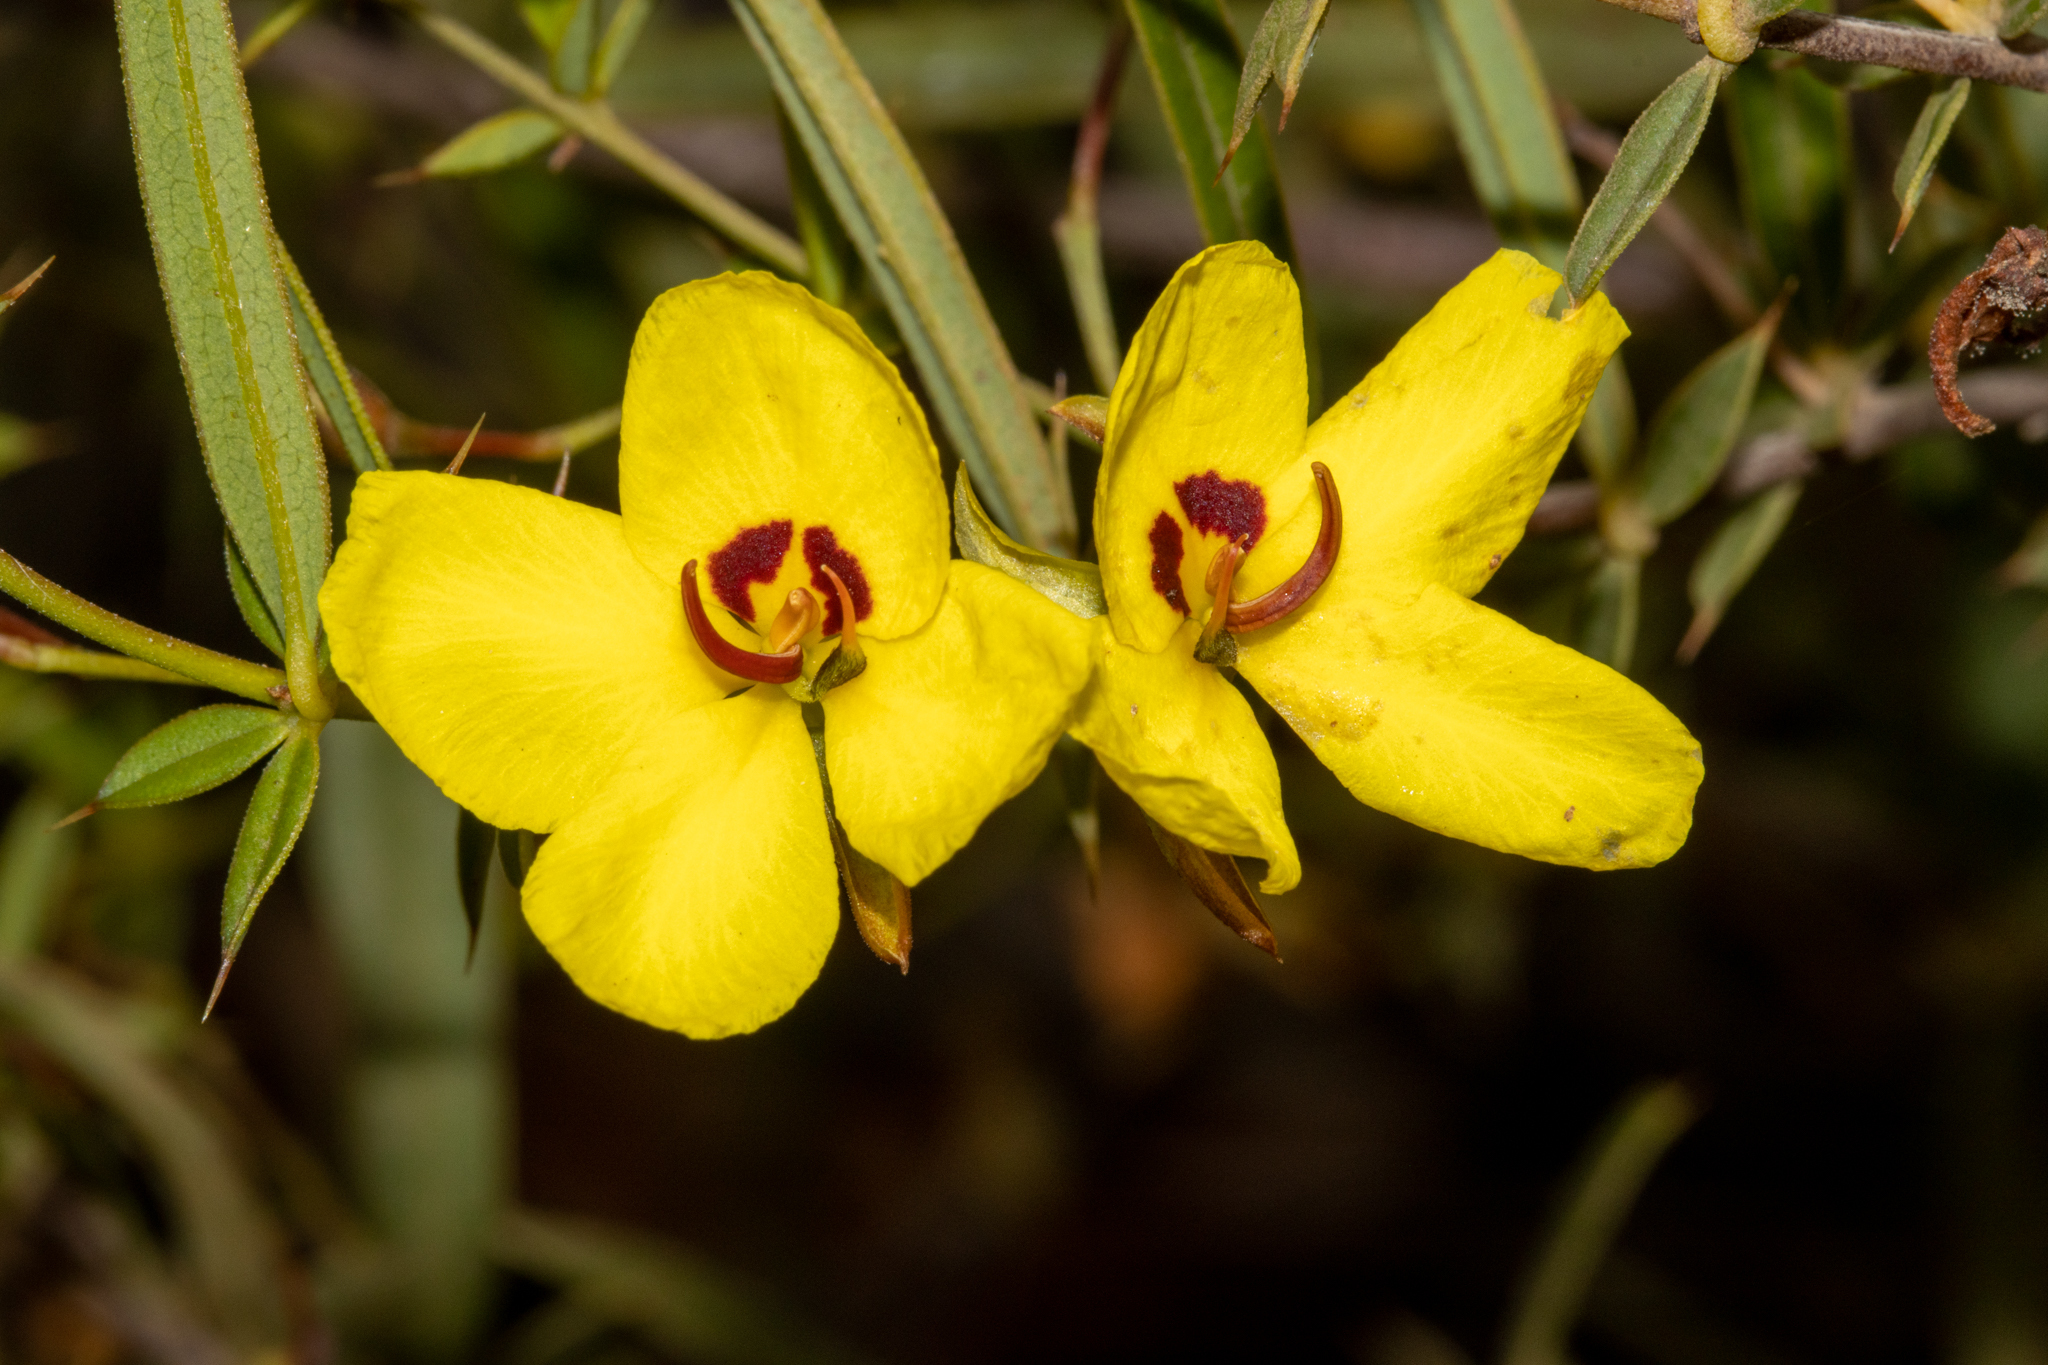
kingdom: Plantae
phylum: Tracheophyta
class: Magnoliopsida
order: Fabales
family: Fabaceae
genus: Labichea
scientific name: Labichea lanceolata
